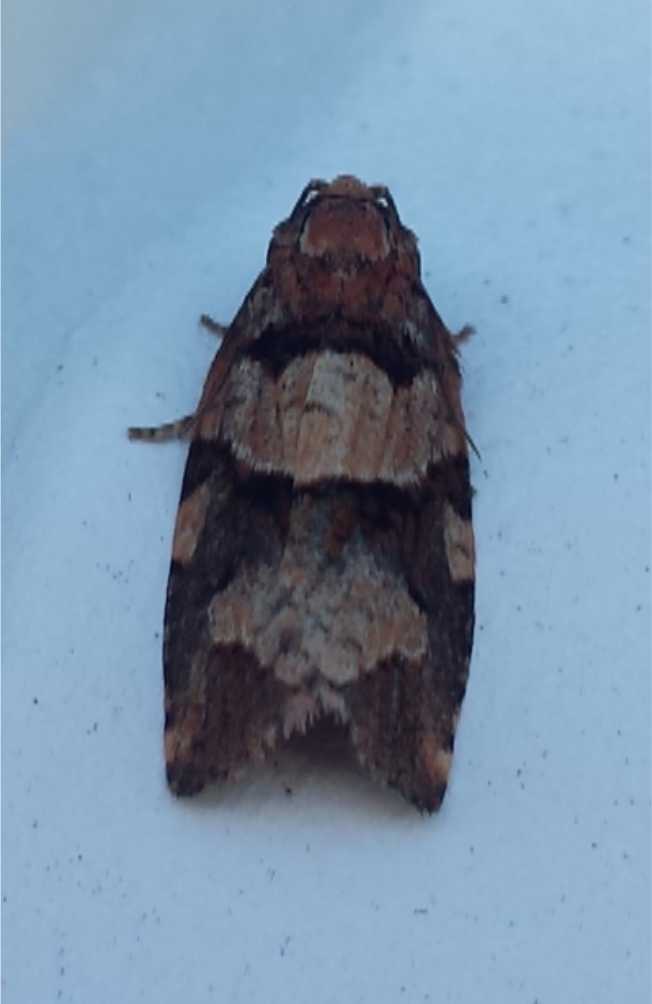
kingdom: Animalia
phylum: Arthropoda
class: Insecta
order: Lepidoptera
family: Tortricidae
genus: Archips
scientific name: Archips alberta
